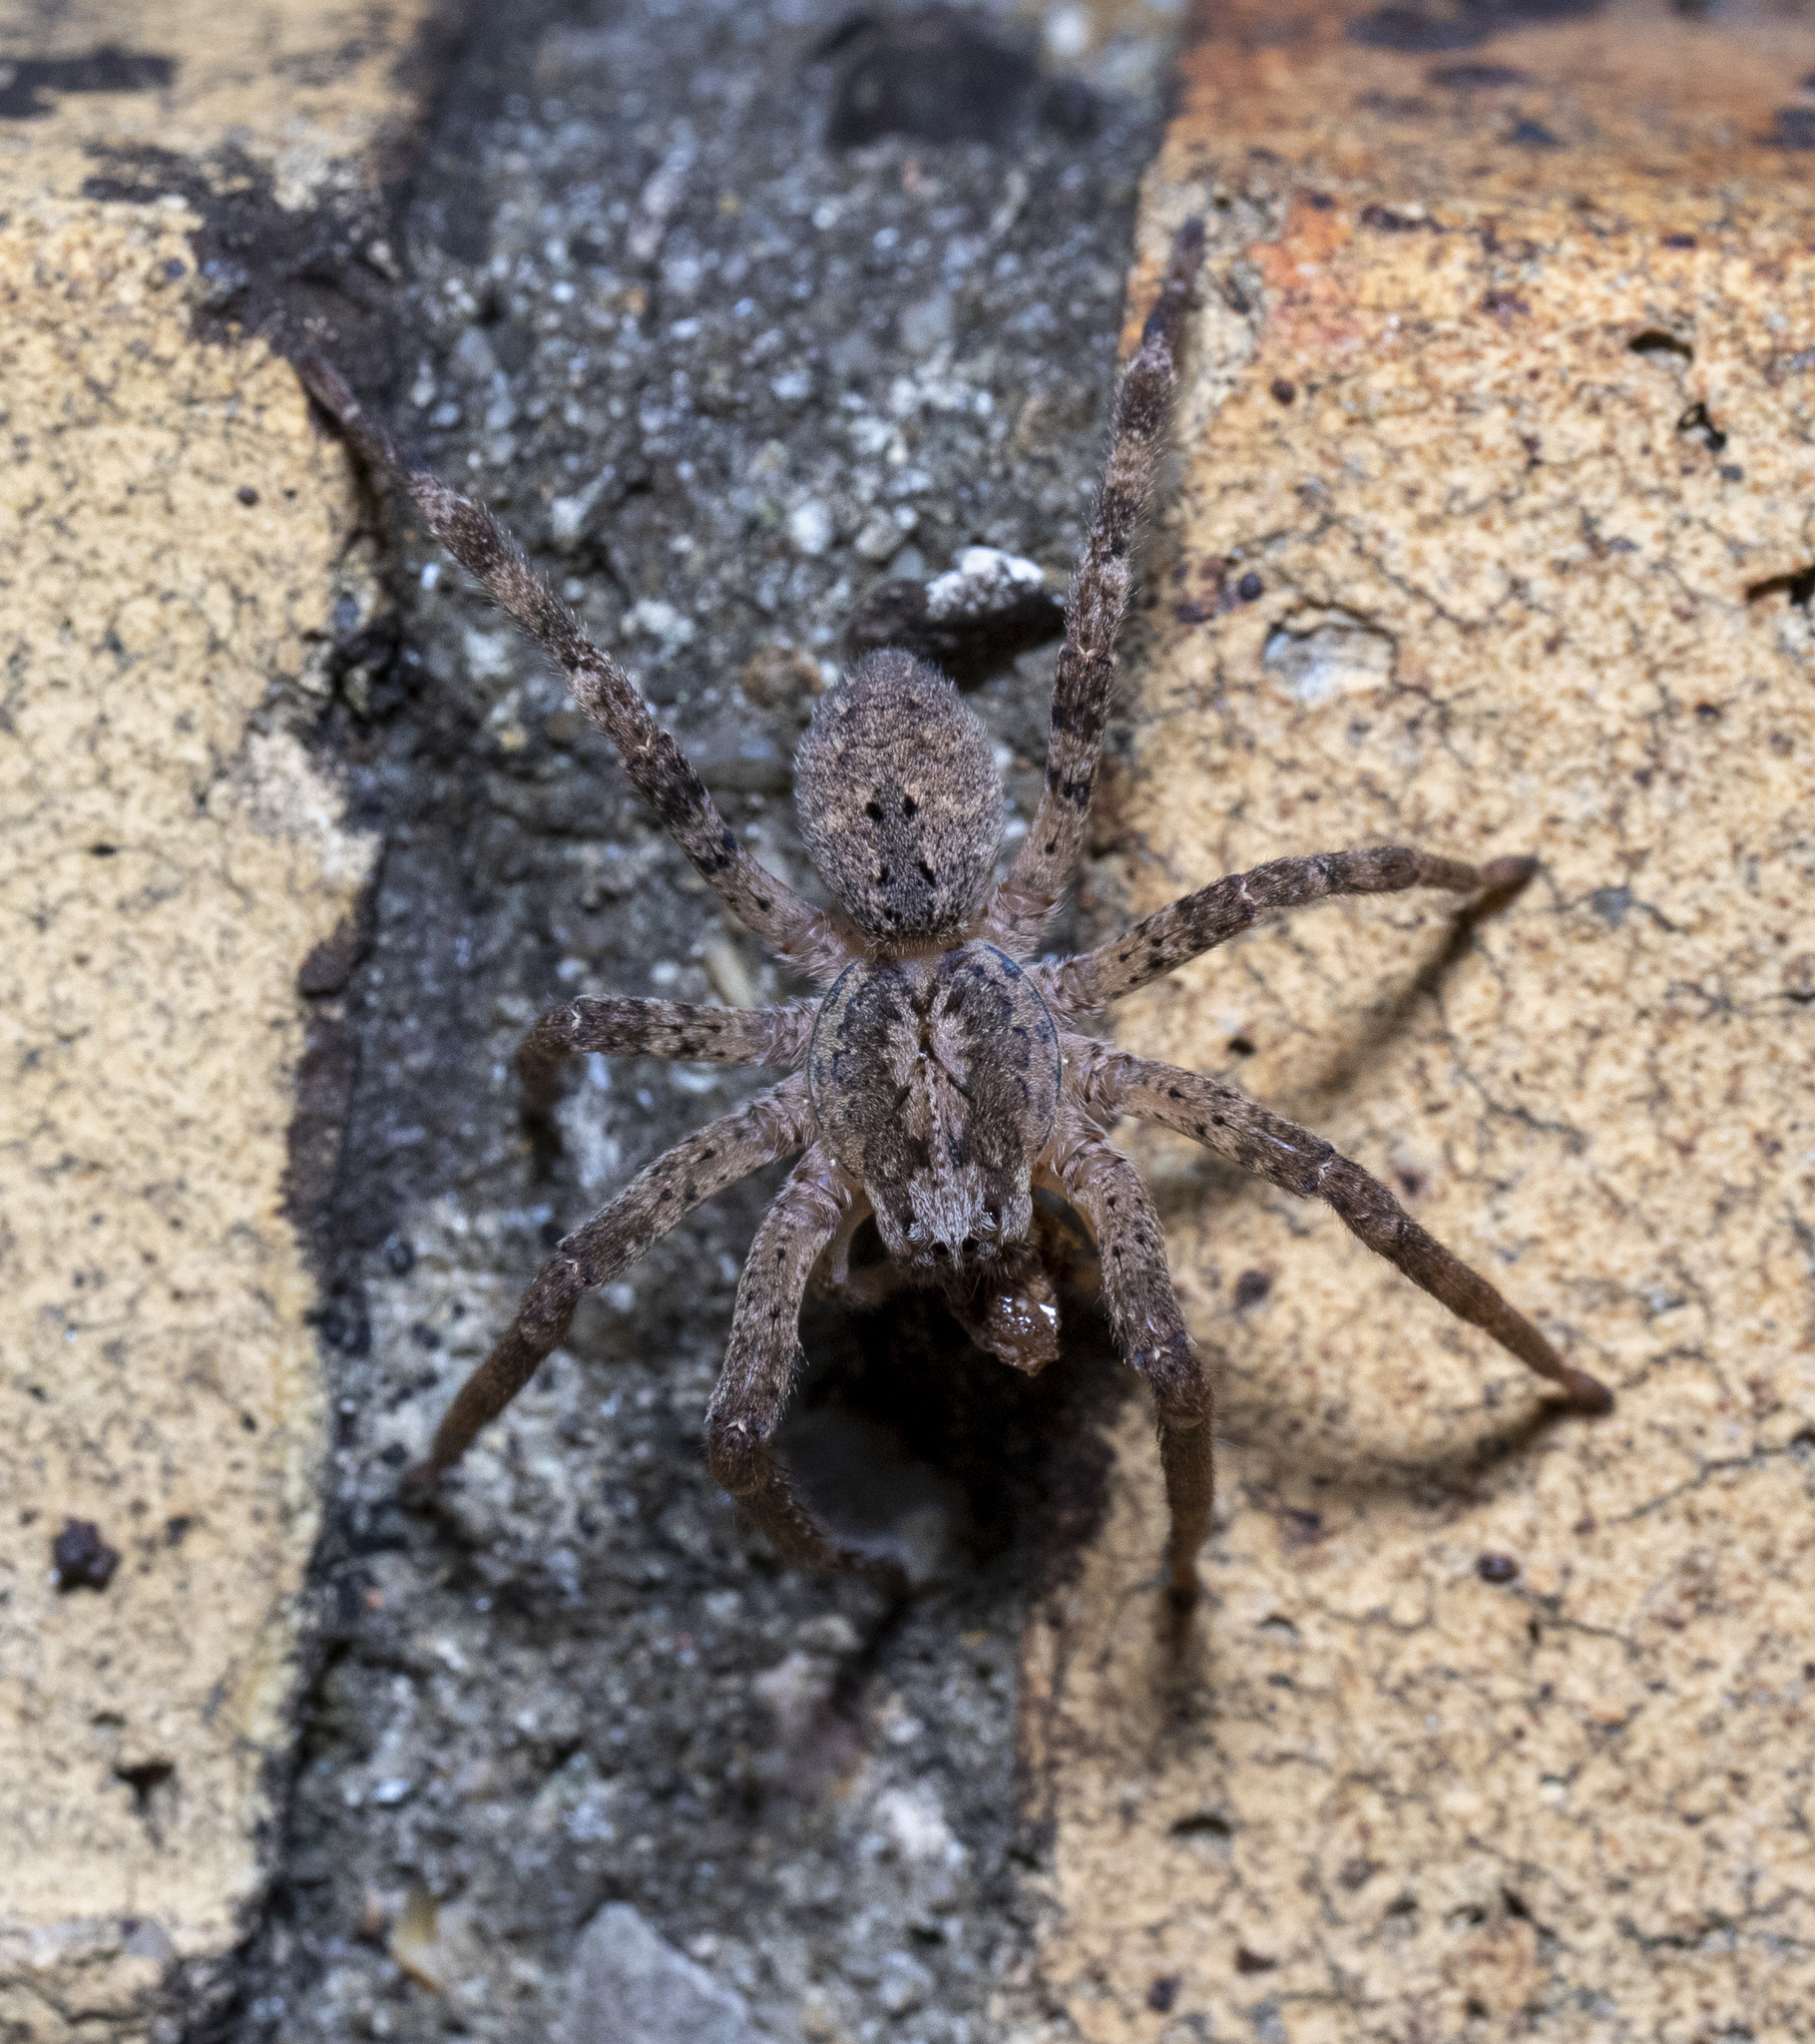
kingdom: Animalia
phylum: Arthropoda
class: Arachnida
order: Araneae
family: Zoropsidae
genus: Zoropsis
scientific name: Zoropsis spinimana
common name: Zoropsid spider
